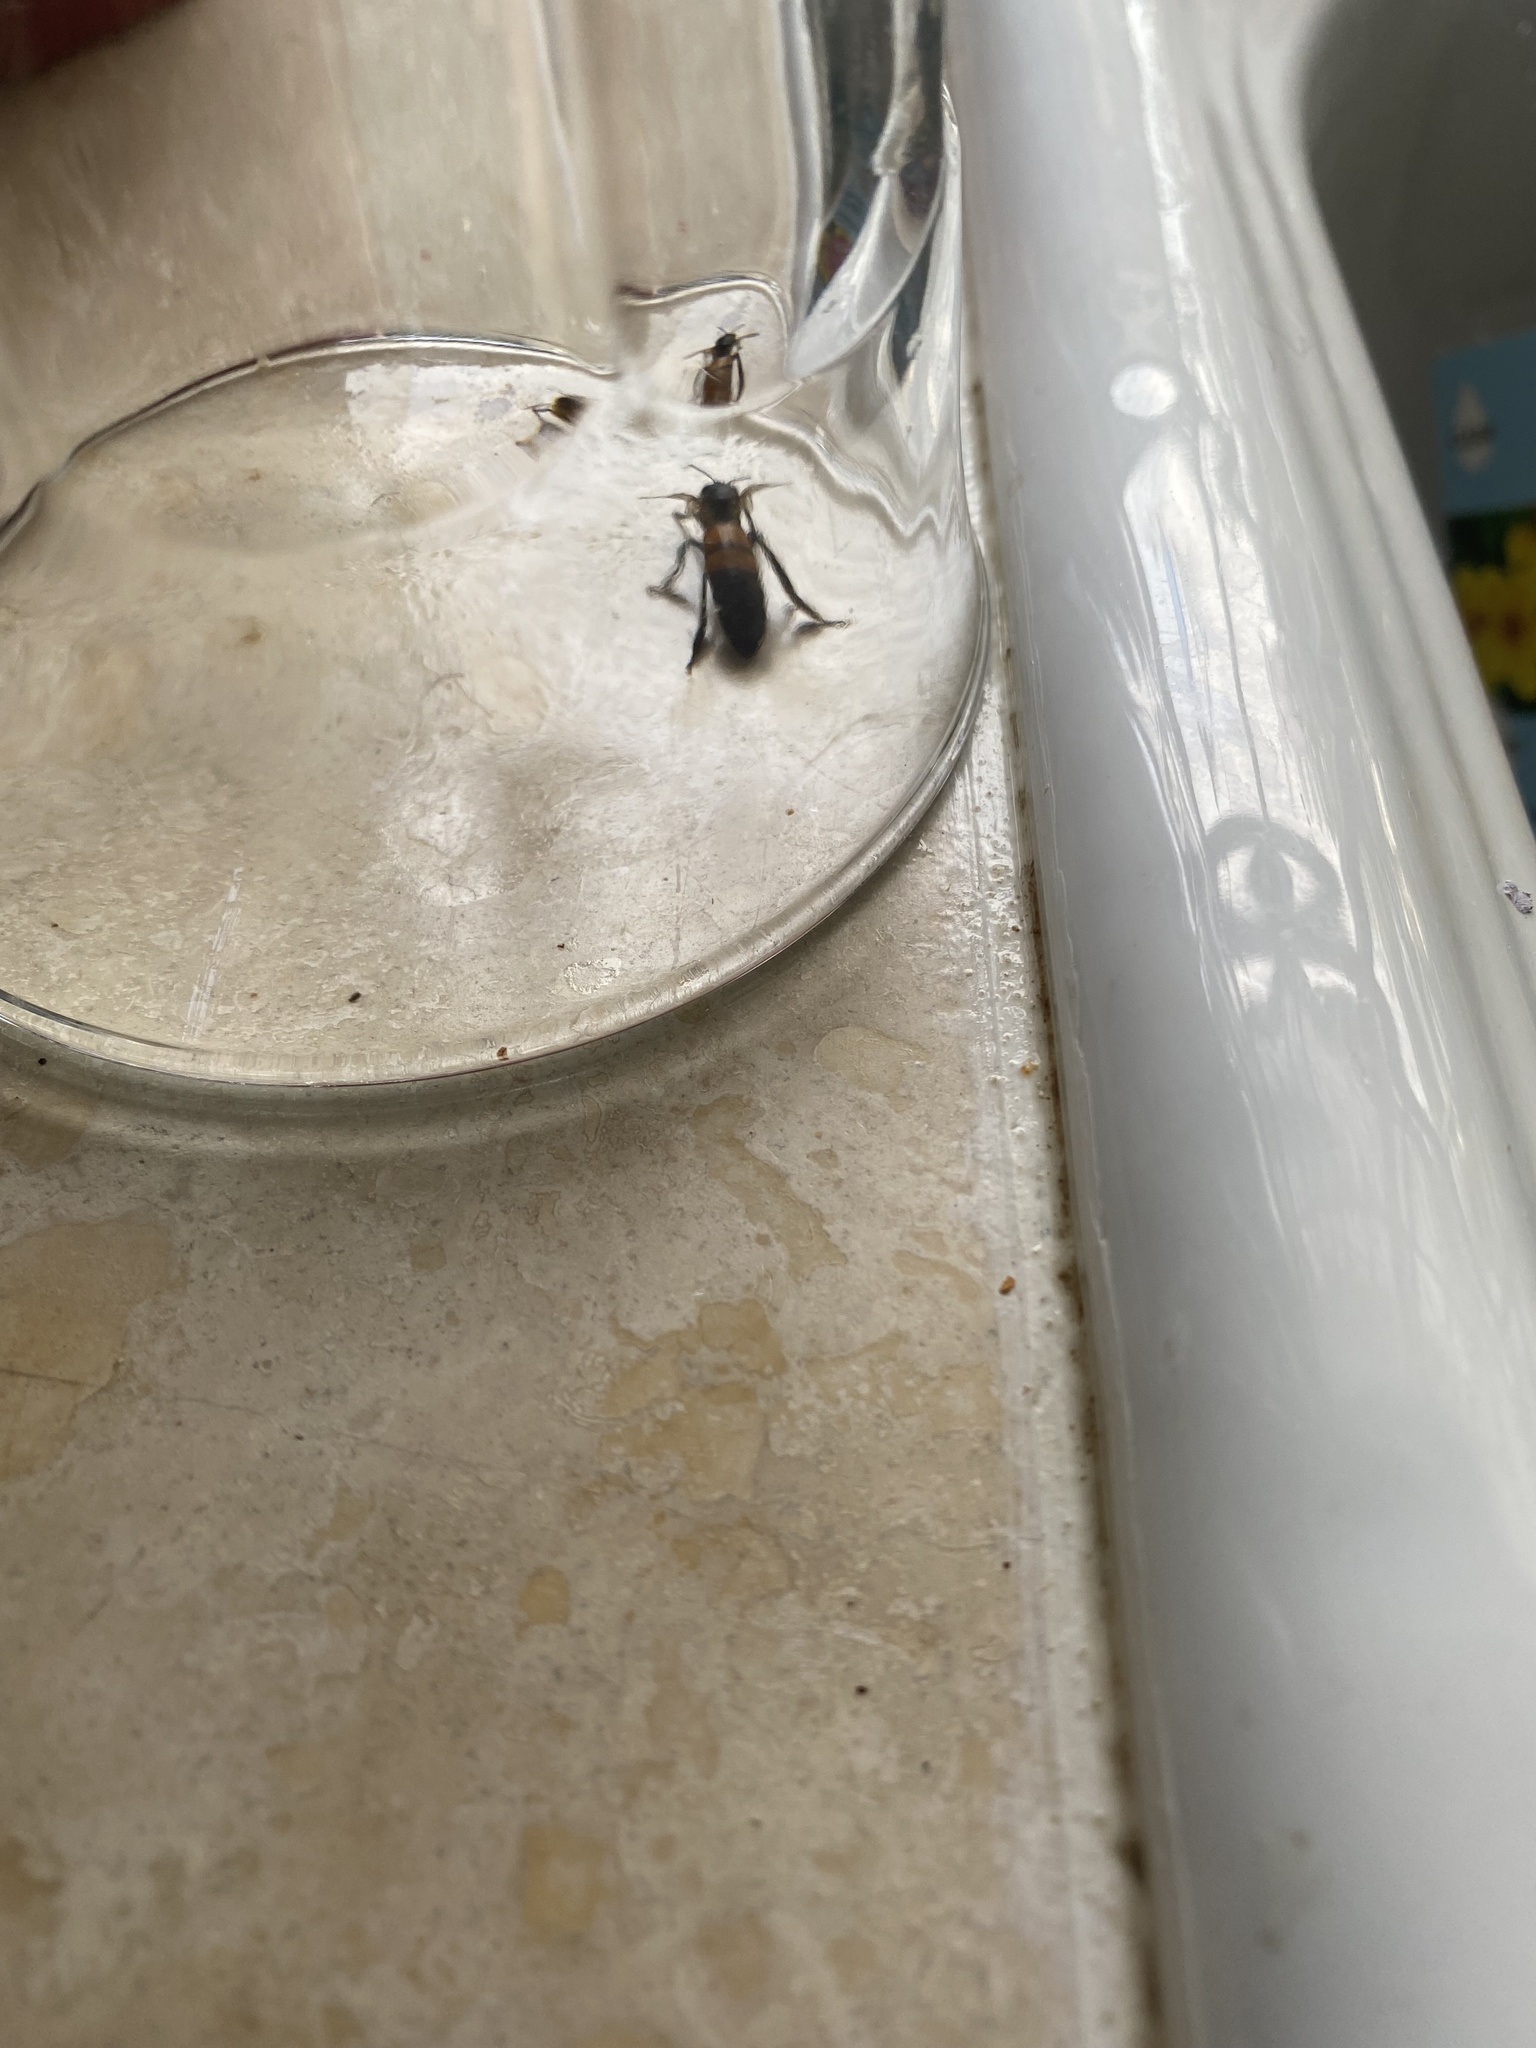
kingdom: Animalia
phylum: Arthropoda
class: Insecta
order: Hymenoptera
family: Apidae
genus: Apis
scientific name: Apis mellifera
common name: Honey bee
